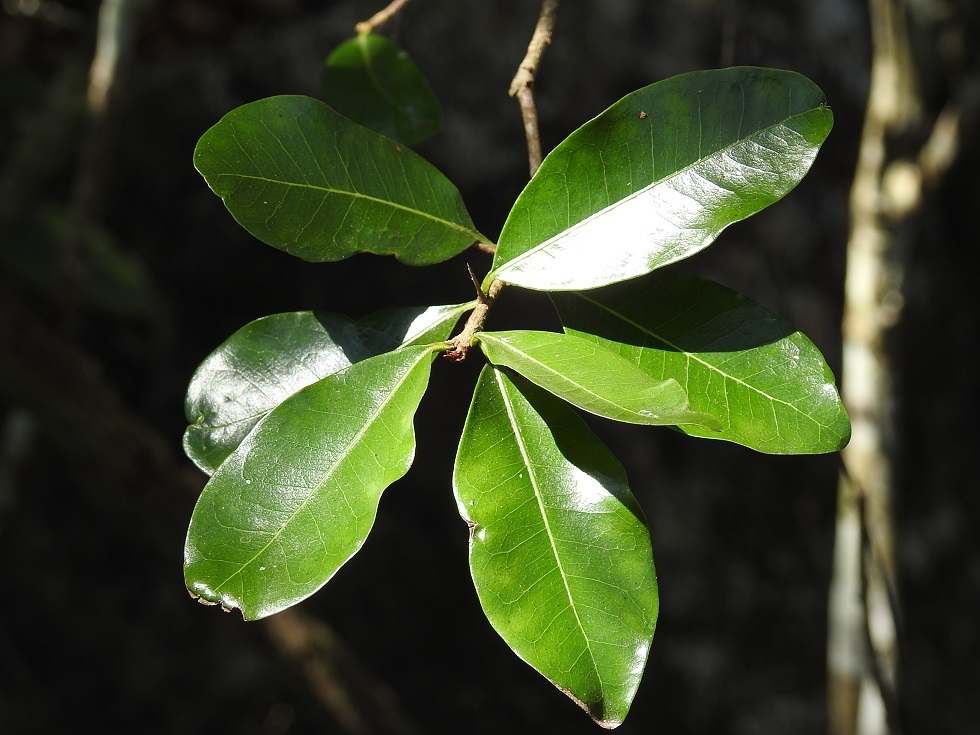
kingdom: Plantae
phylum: Tracheophyta
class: Magnoliopsida
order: Ericales
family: Sapotaceae
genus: Sideroxylon
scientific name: Sideroxylon palmeri
